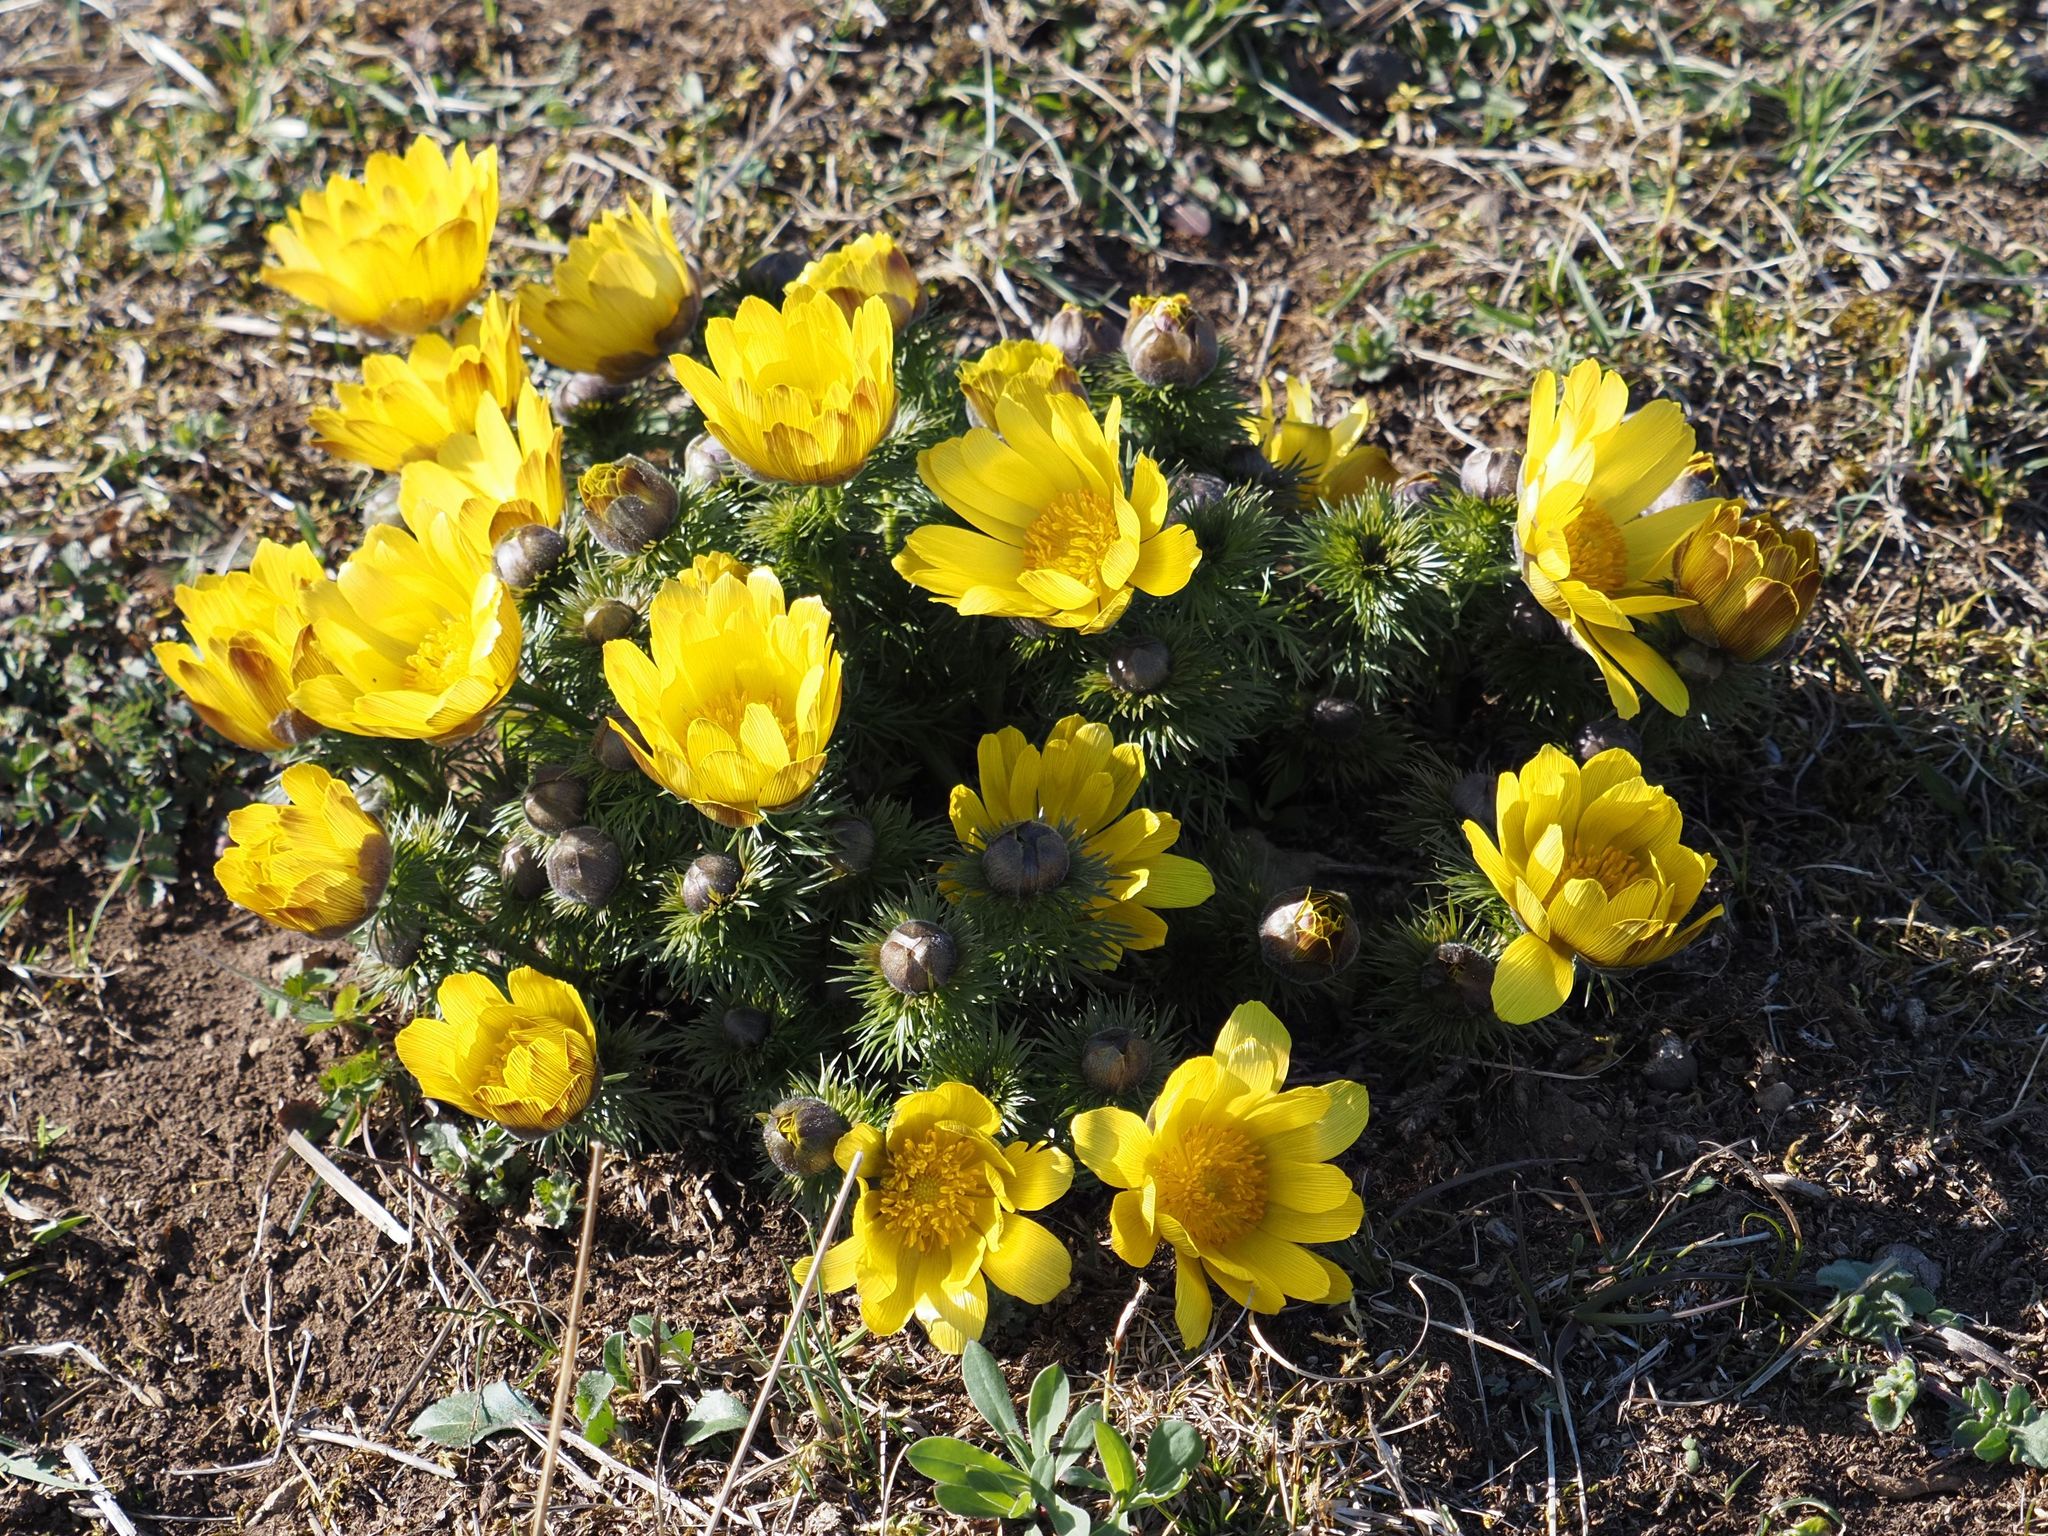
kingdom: Plantae
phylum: Tracheophyta
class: Magnoliopsida
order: Ranunculales
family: Ranunculaceae
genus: Adonis
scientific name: Adonis vernalis
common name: Yellow pheasants-eye
